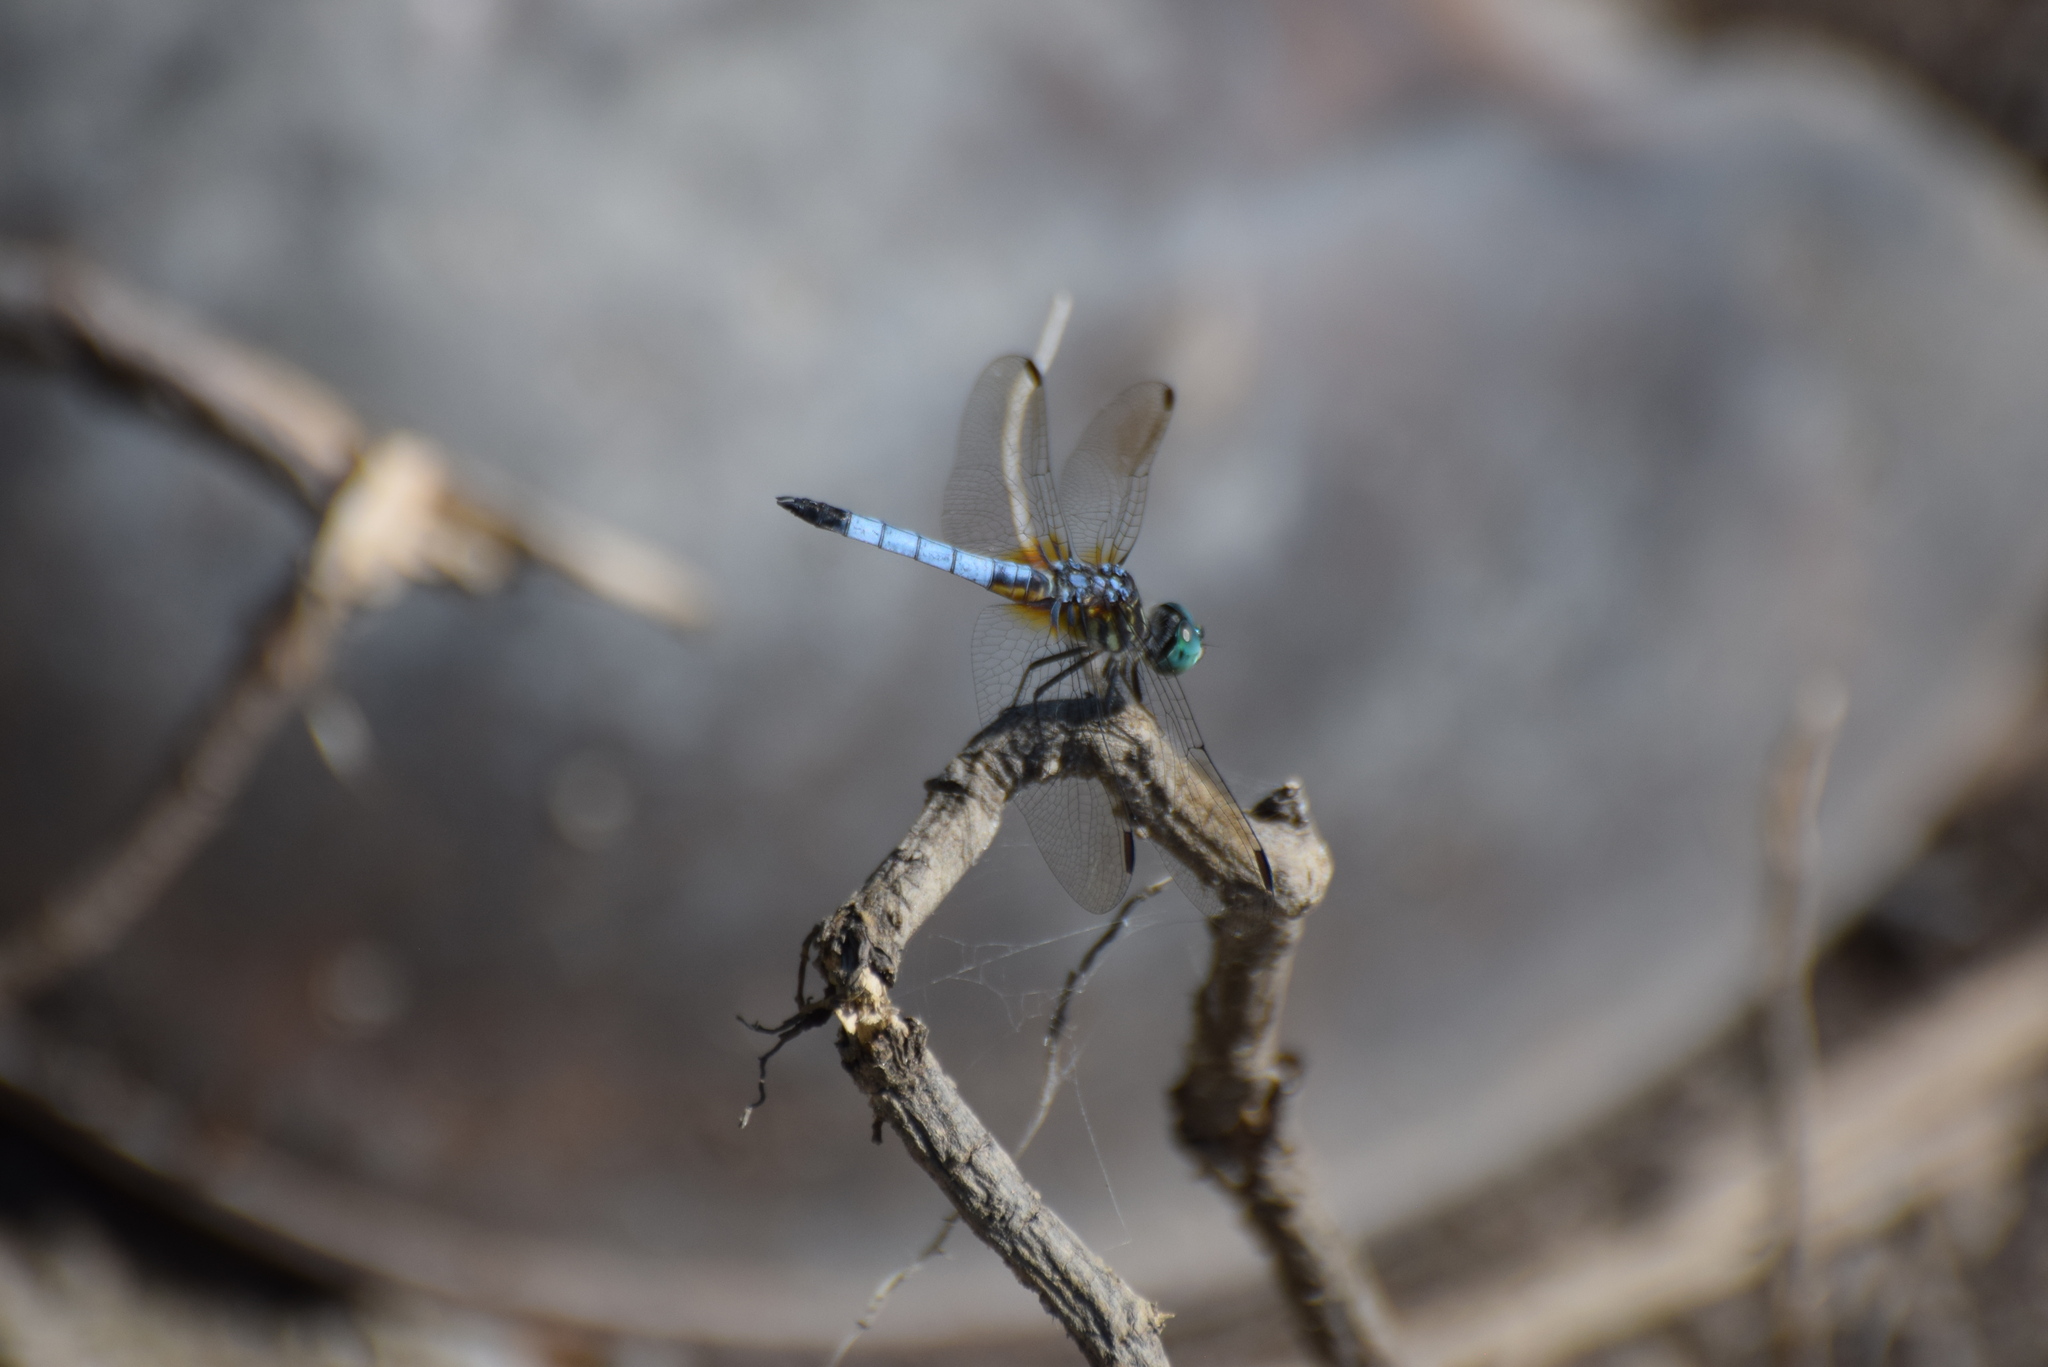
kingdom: Animalia
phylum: Arthropoda
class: Insecta
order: Odonata
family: Libellulidae
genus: Pachydiplax
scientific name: Pachydiplax longipennis
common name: Blue dasher
